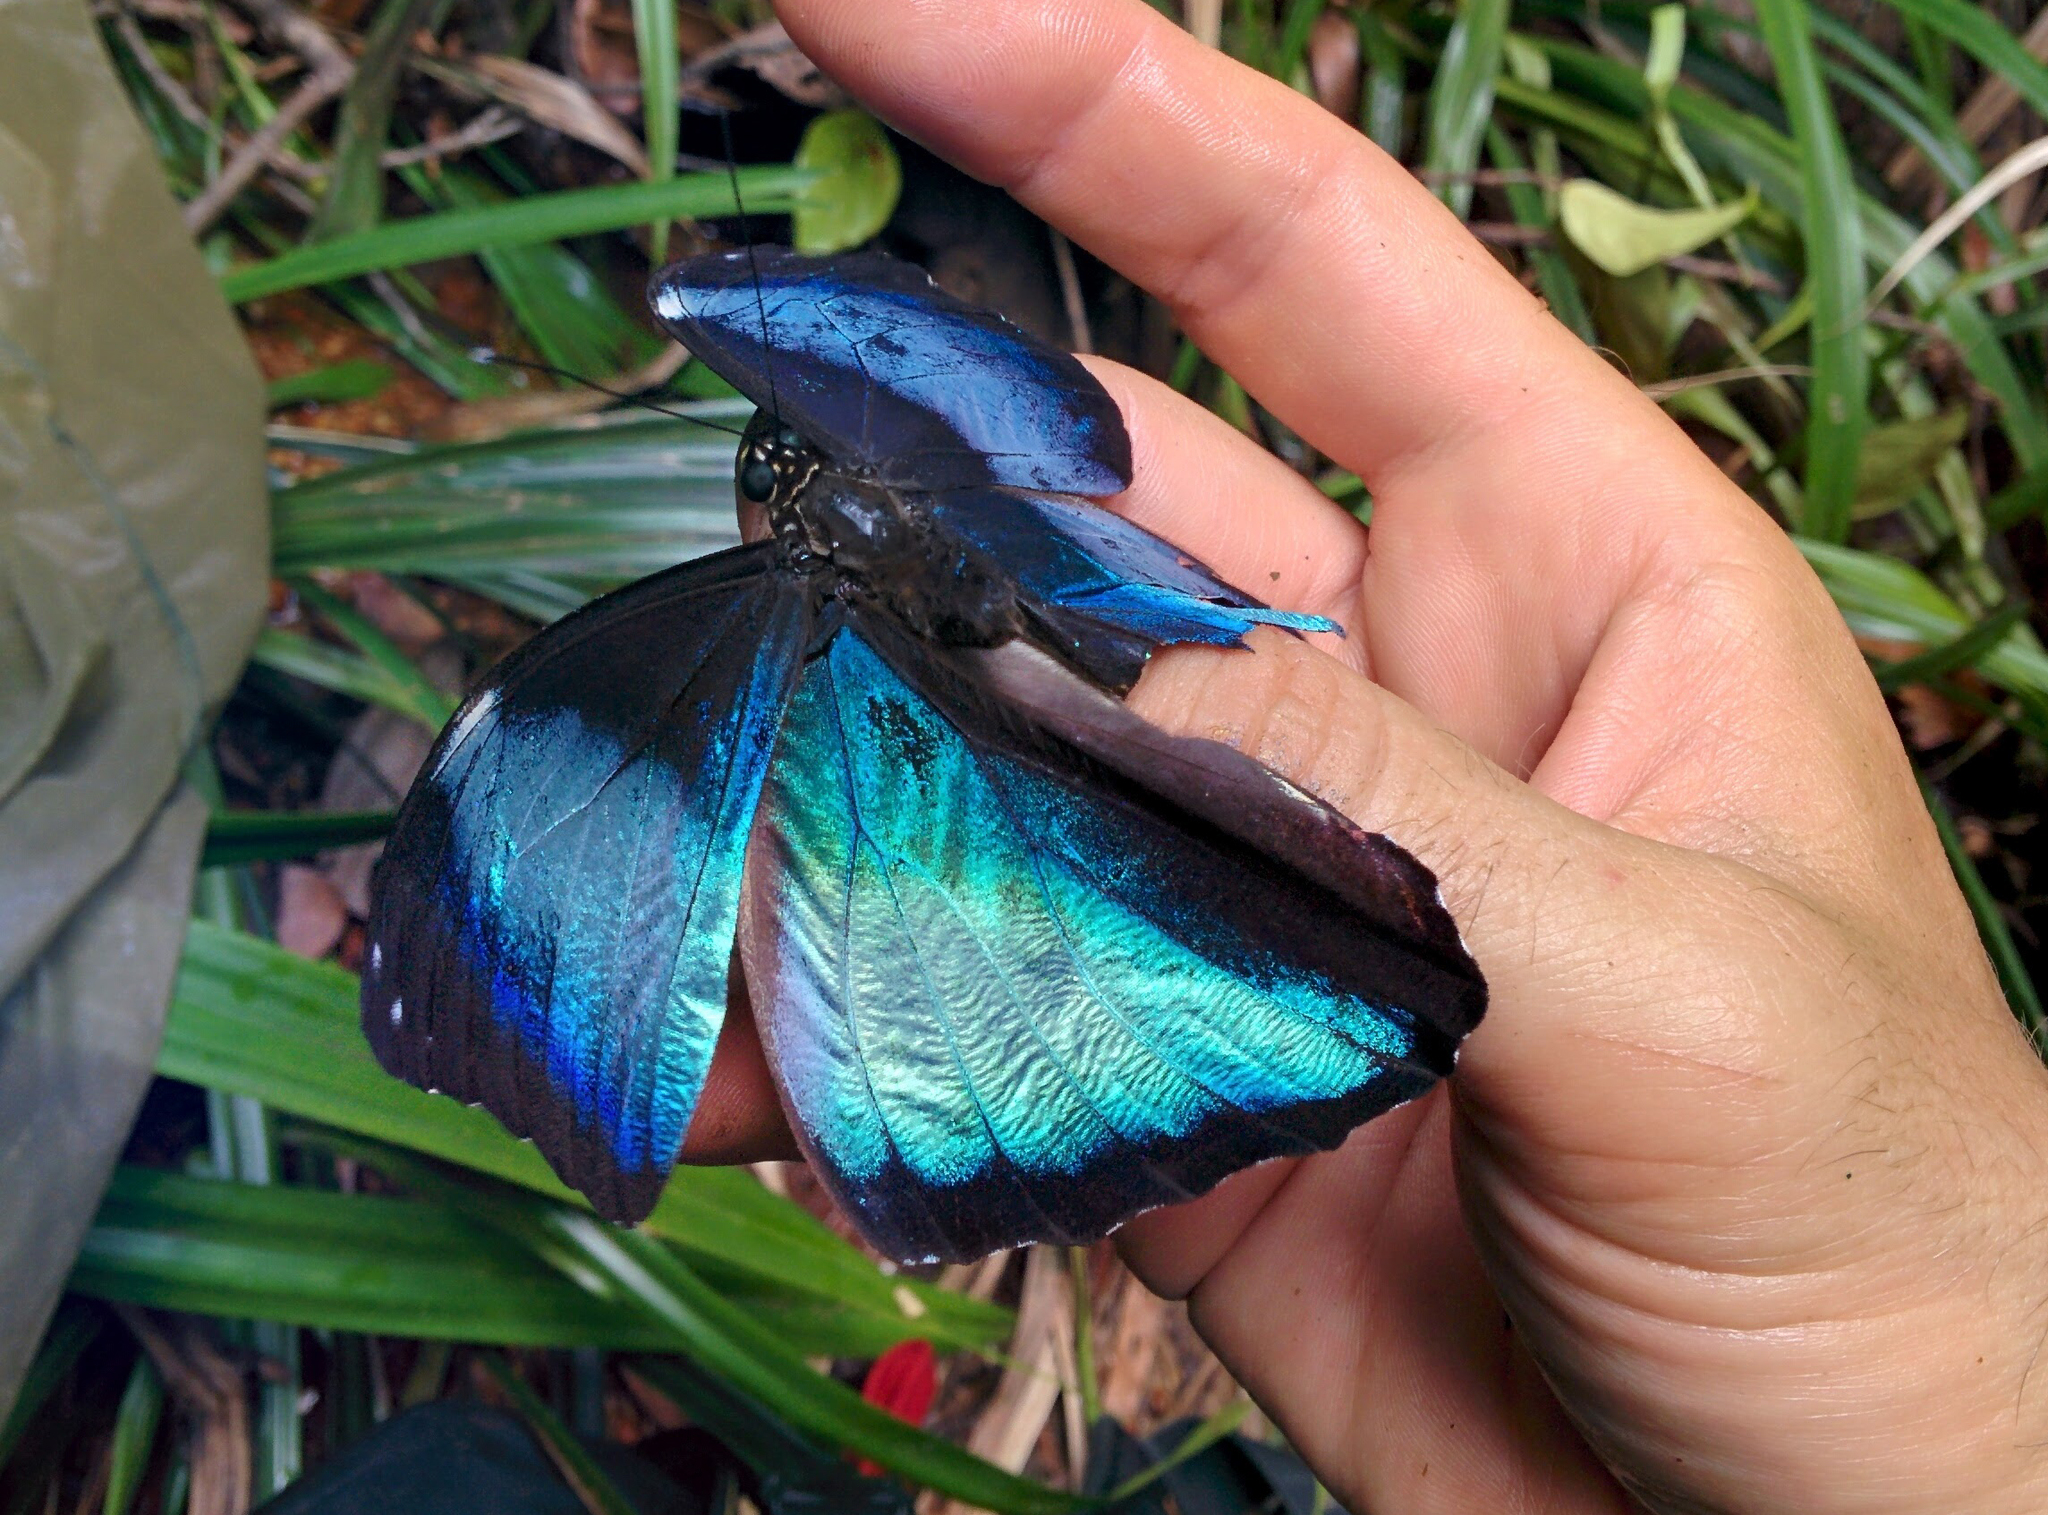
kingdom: Animalia
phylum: Arthropoda
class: Insecta
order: Lepidoptera
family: Nymphalidae
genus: Morpho
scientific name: Morpho deidamia
